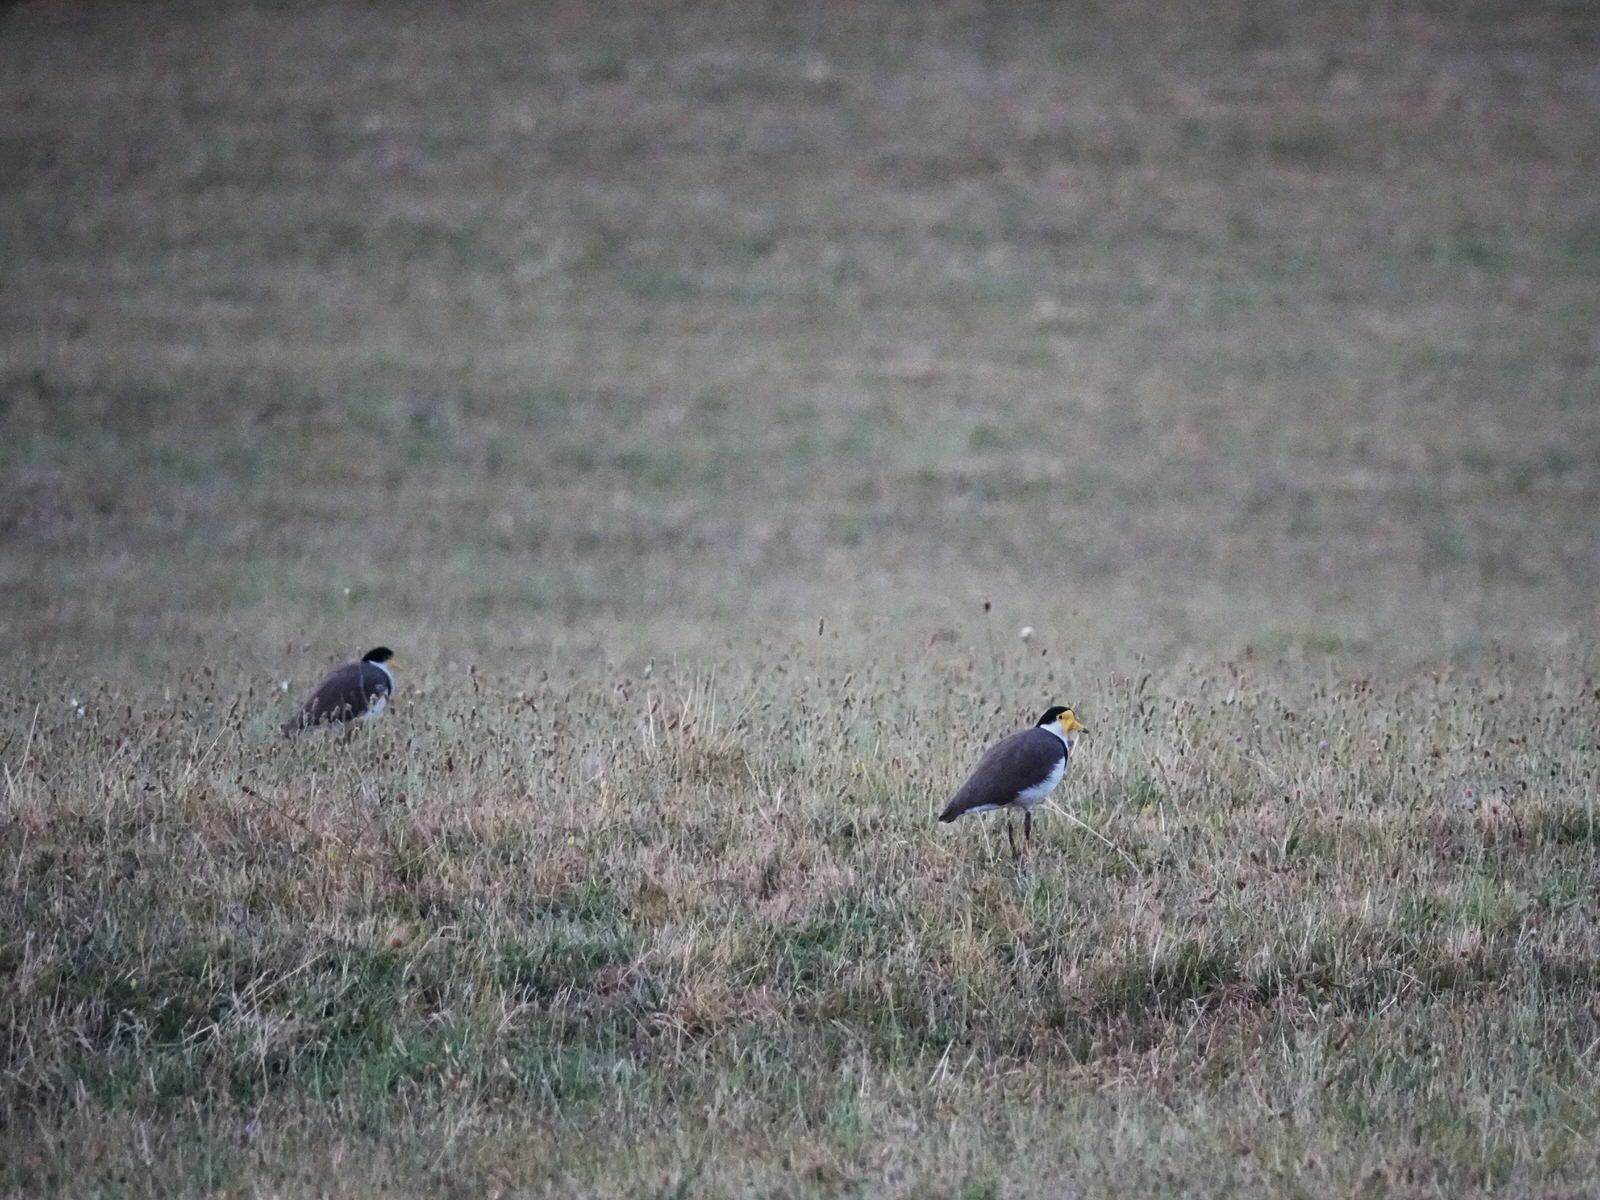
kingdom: Animalia
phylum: Chordata
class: Aves
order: Charadriiformes
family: Charadriidae
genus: Vanellus
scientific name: Vanellus miles
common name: Masked lapwing
